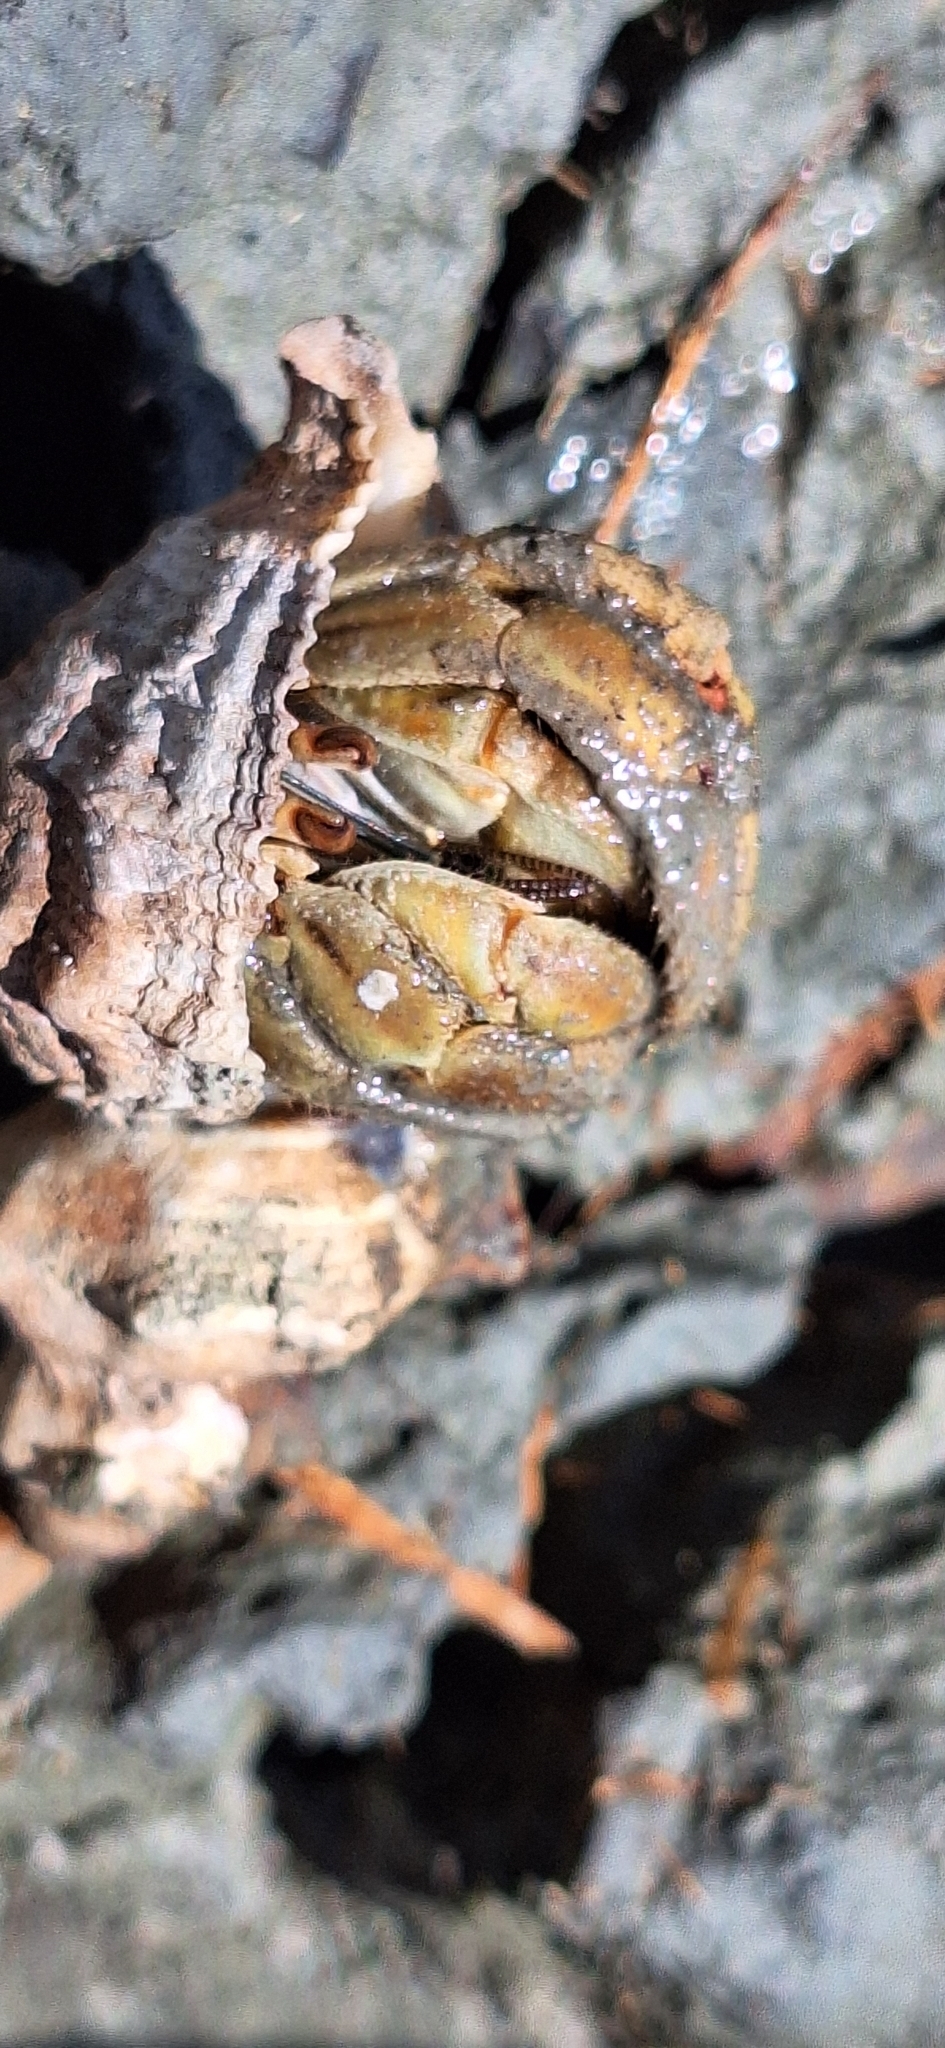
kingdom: Animalia
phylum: Arthropoda
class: Malacostraca
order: Decapoda
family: Coenobitidae
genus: Coenobita
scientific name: Coenobita compressus
